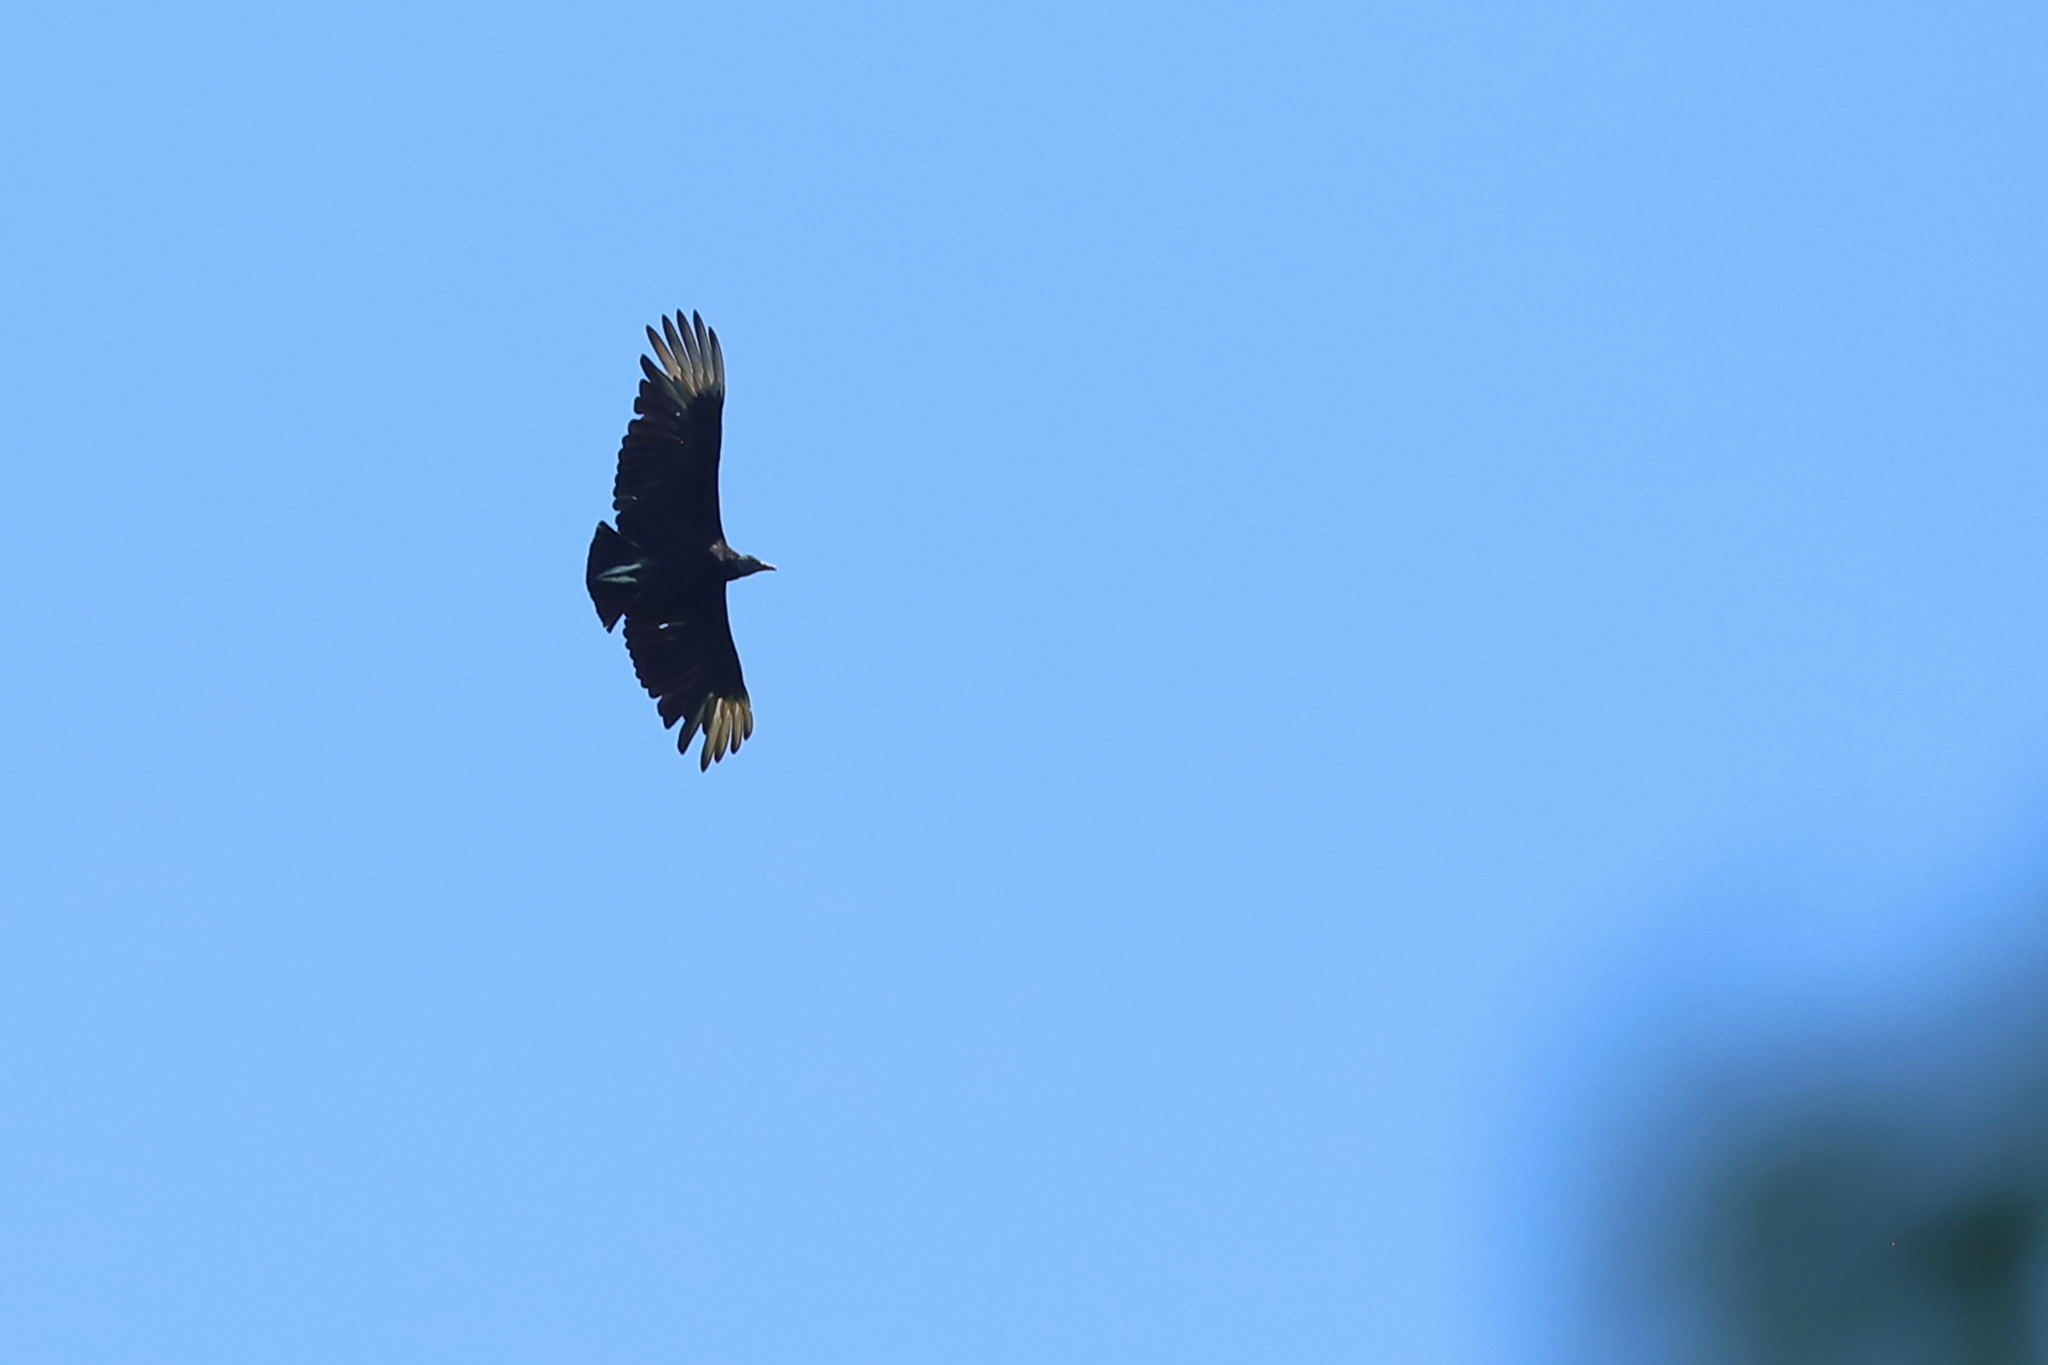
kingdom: Animalia
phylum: Chordata
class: Aves
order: Accipitriformes
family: Cathartidae
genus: Coragyps
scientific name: Coragyps atratus
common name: Black vulture
